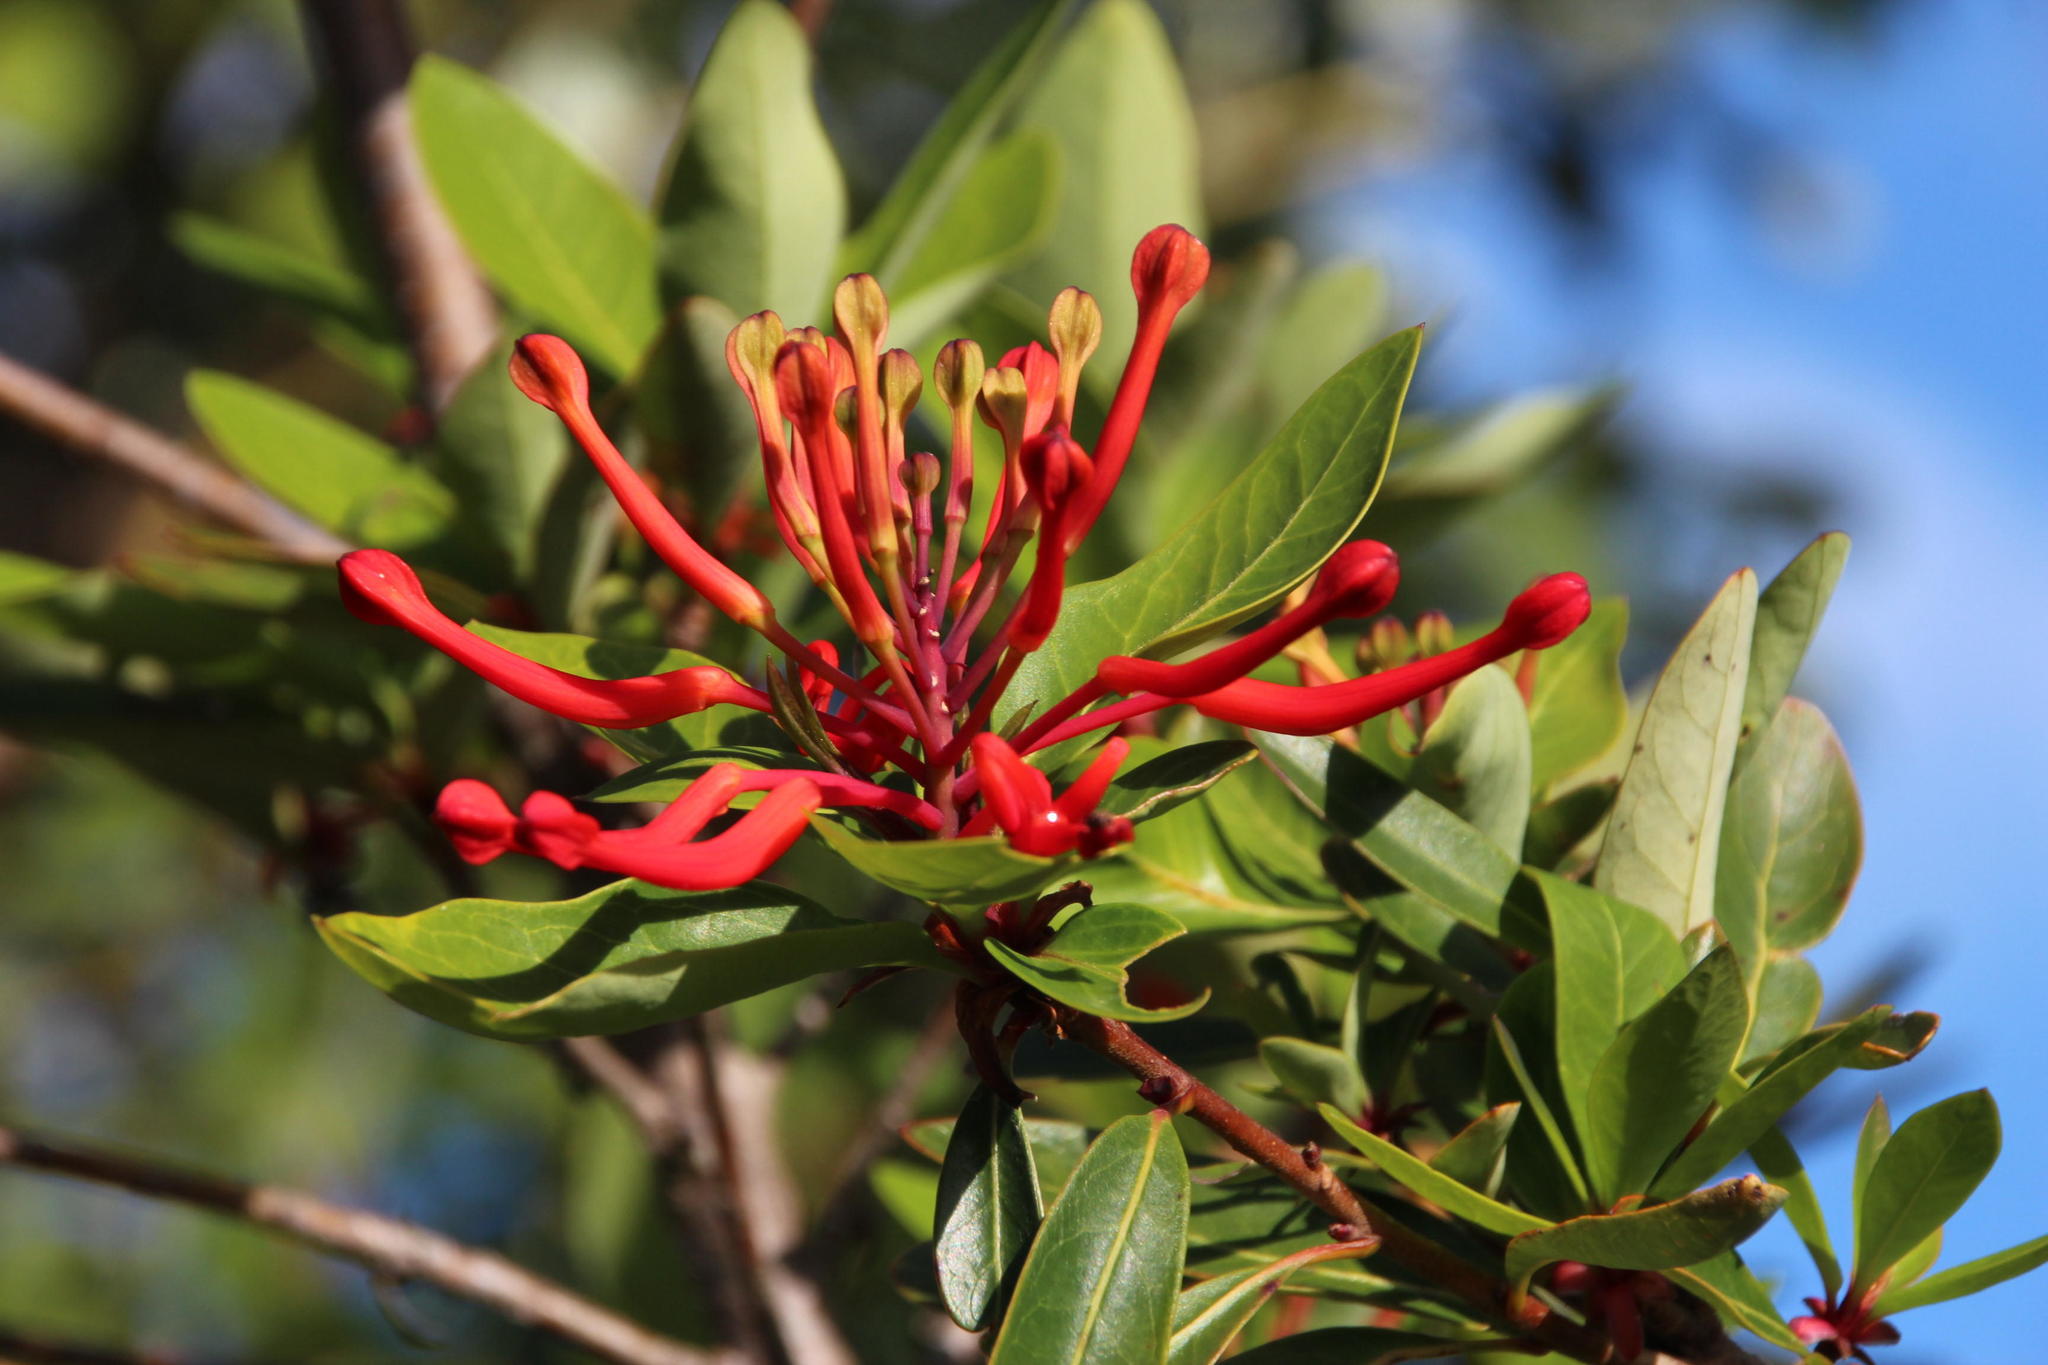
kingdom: Plantae
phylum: Tracheophyta
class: Magnoliopsida
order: Proteales
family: Proteaceae
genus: Embothrium
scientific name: Embothrium coccineum
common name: Chilean firebush
